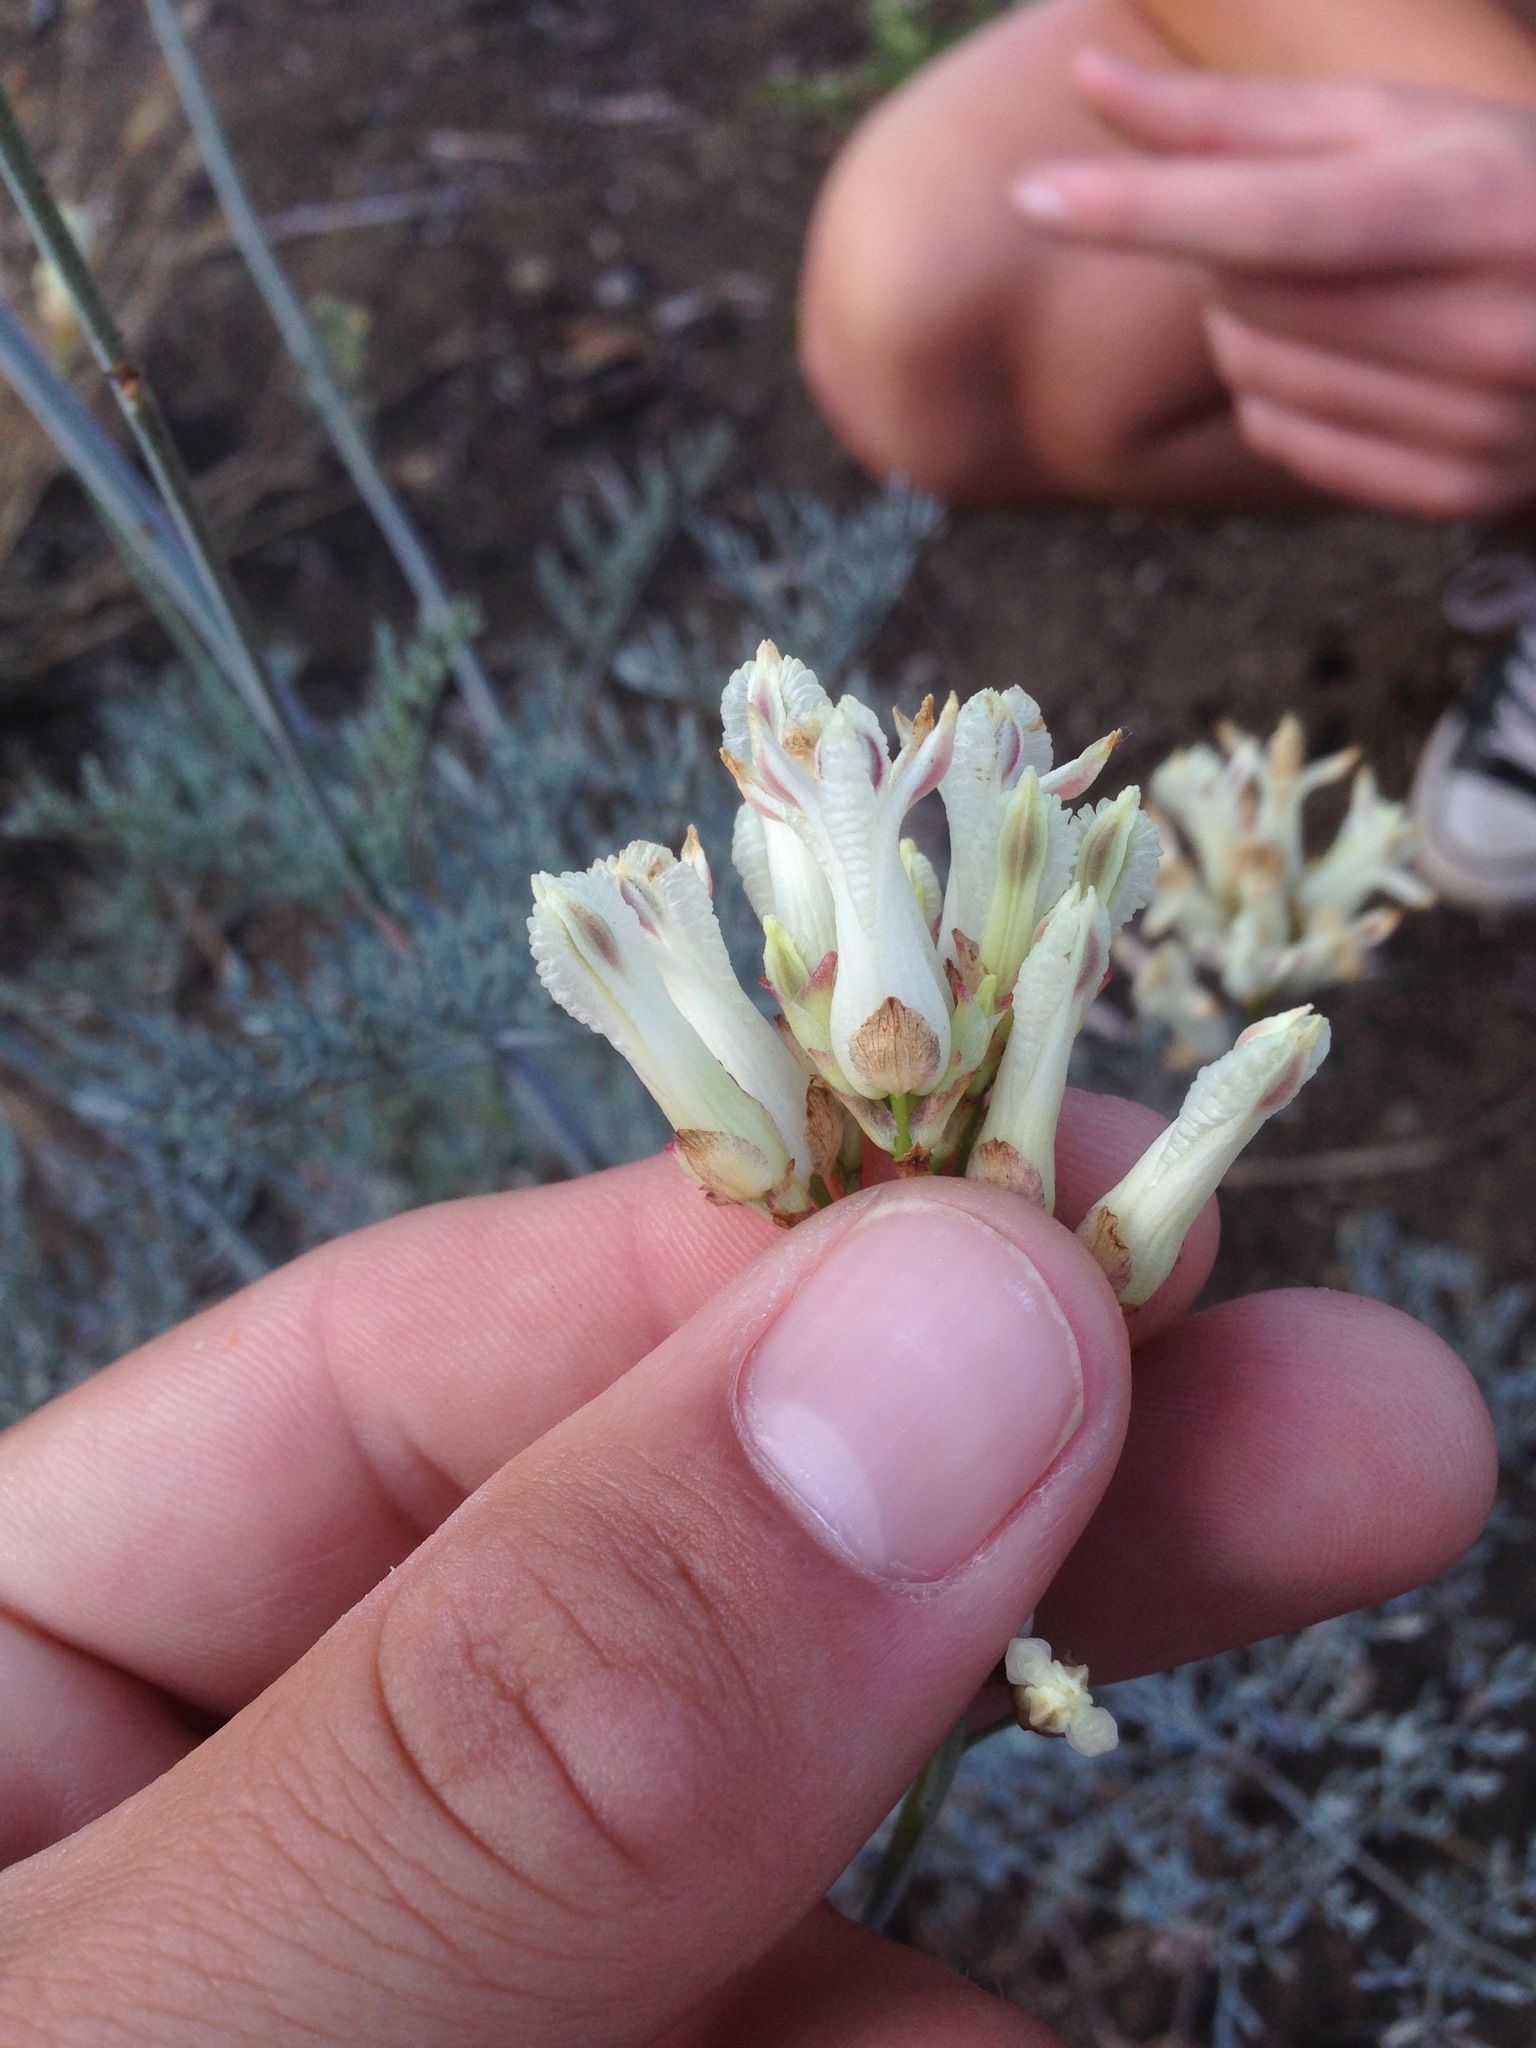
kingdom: Plantae
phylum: Tracheophyta
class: Magnoliopsida
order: Ranunculales
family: Papaveraceae
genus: Ehrendorferia
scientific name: Ehrendorferia ochroleuca
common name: White eardrops
